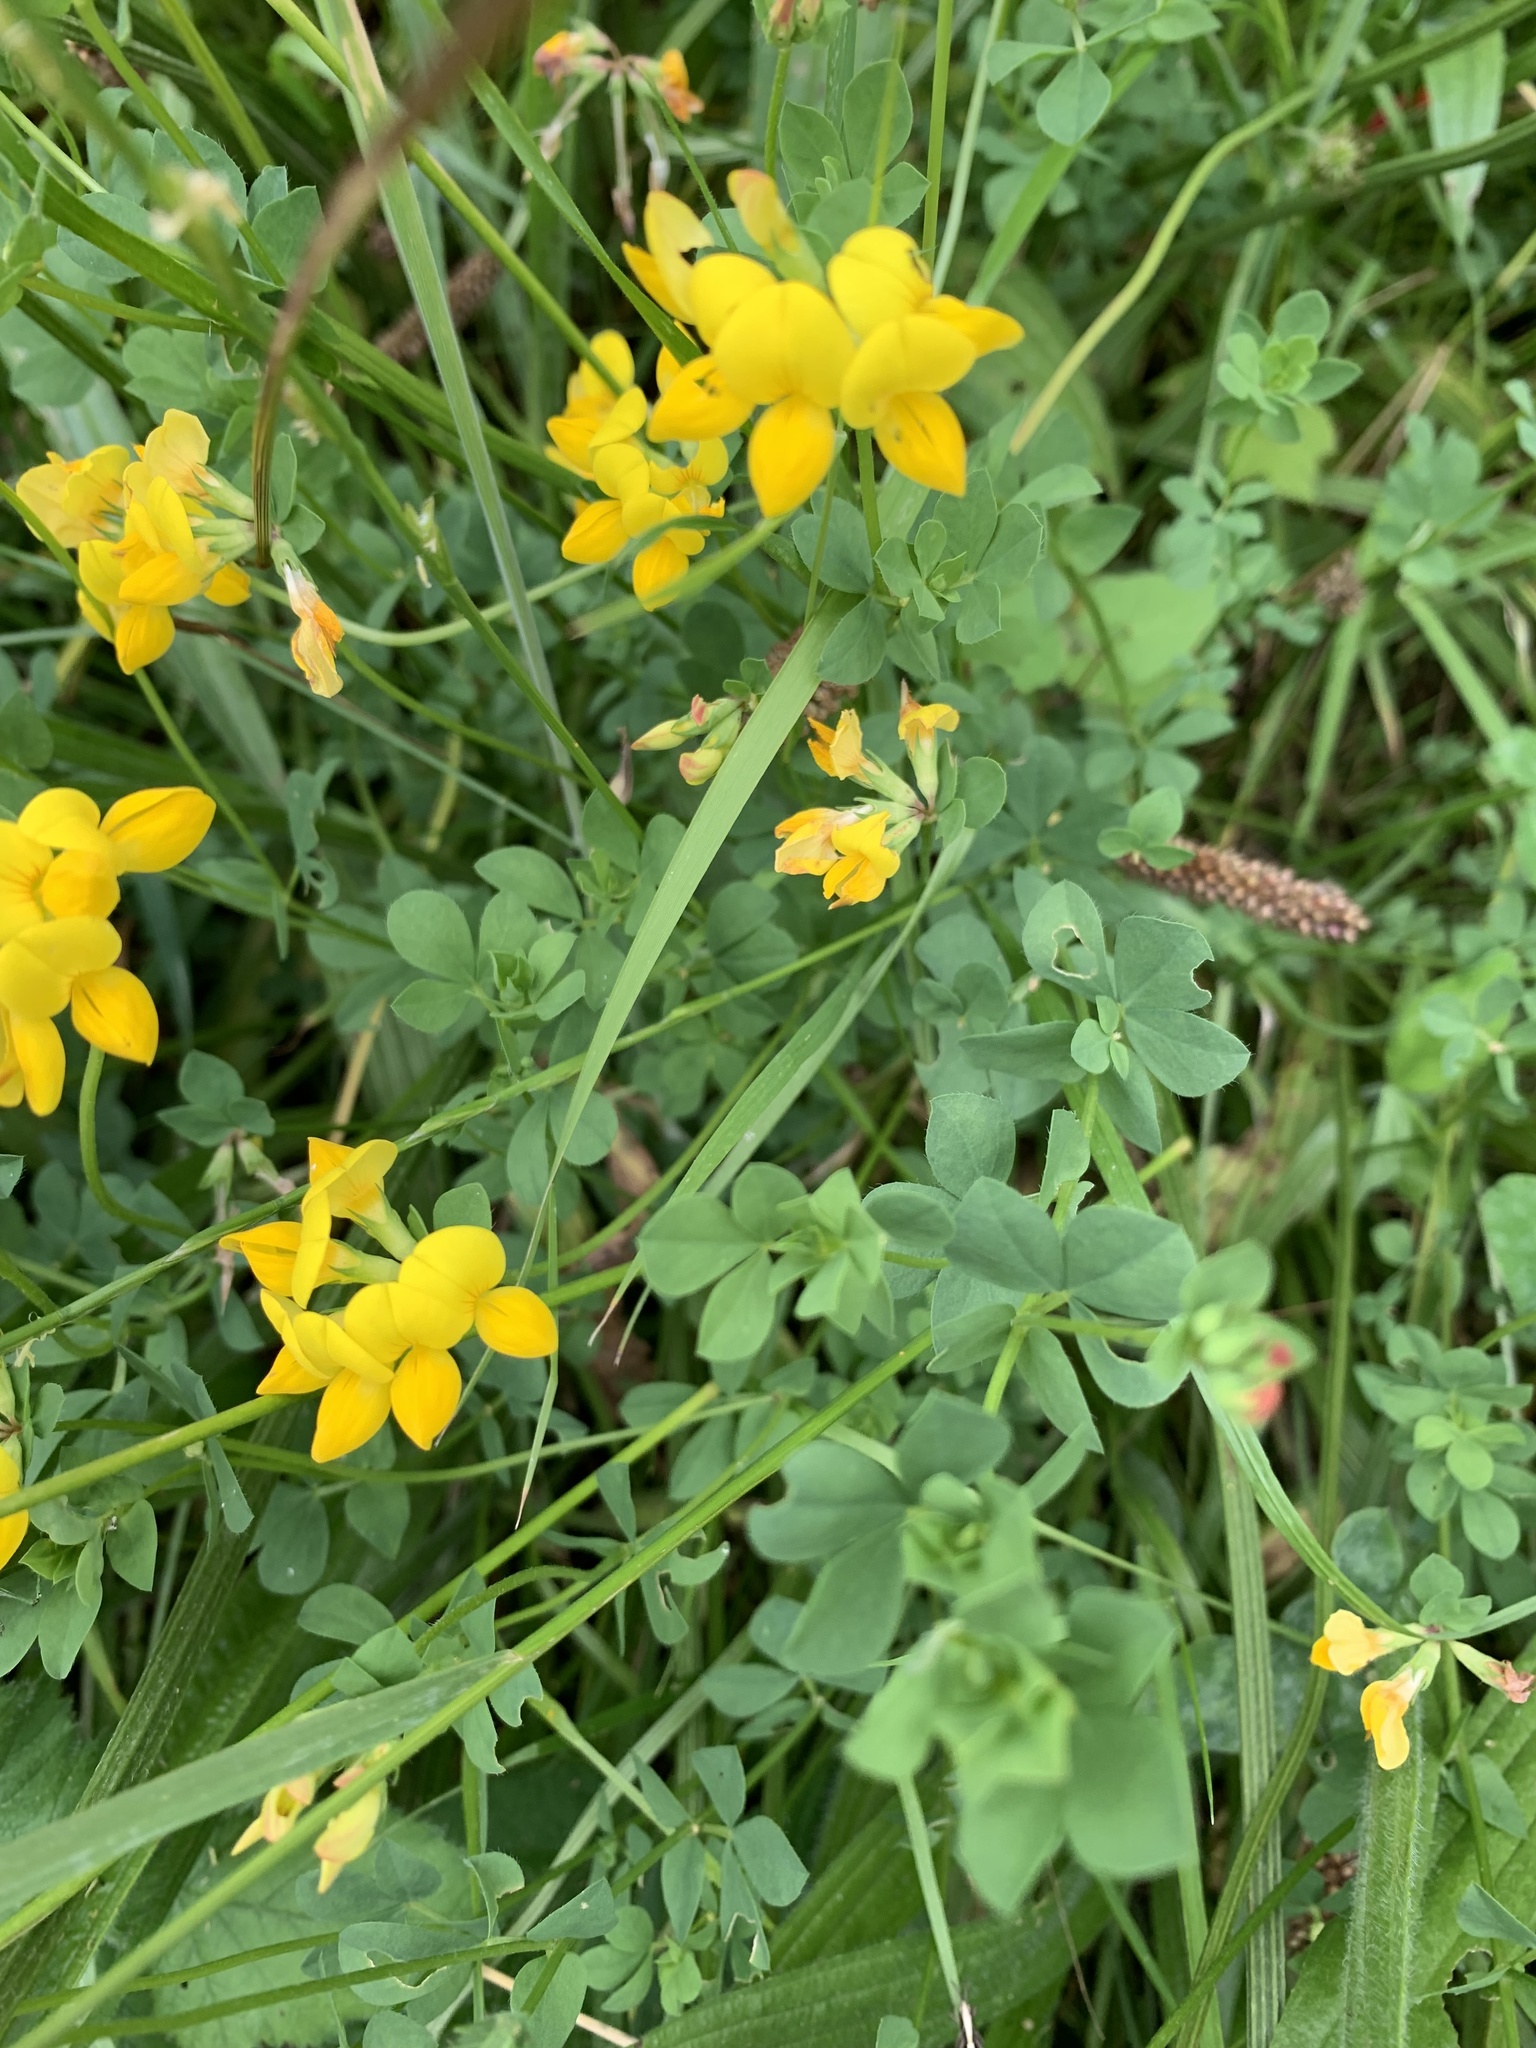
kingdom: Plantae
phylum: Tracheophyta
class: Magnoliopsida
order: Fabales
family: Fabaceae
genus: Lotus
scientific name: Lotus corniculatus
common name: Common bird's-foot-trefoil
